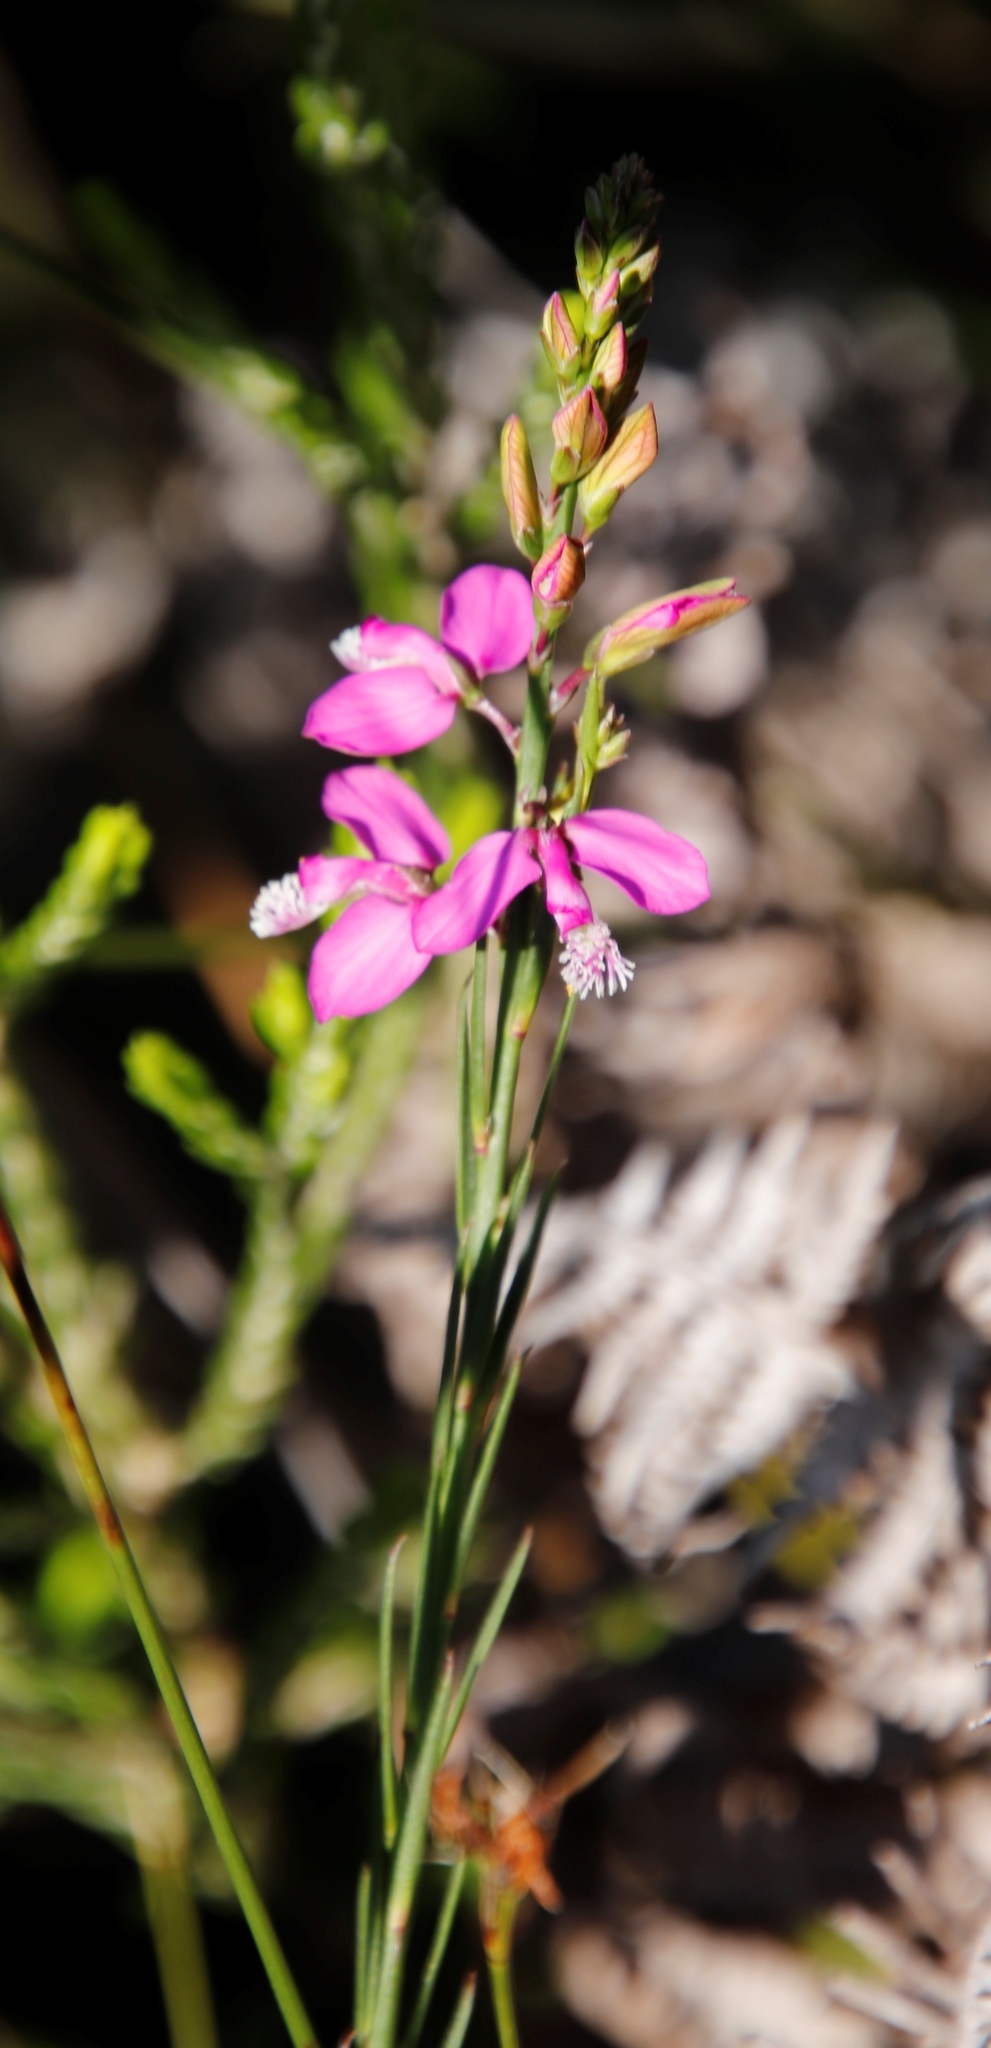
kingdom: Plantae
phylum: Tracheophyta
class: Magnoliopsida
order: Fabales
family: Polygalaceae
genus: Polygala
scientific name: Polygala garcini
